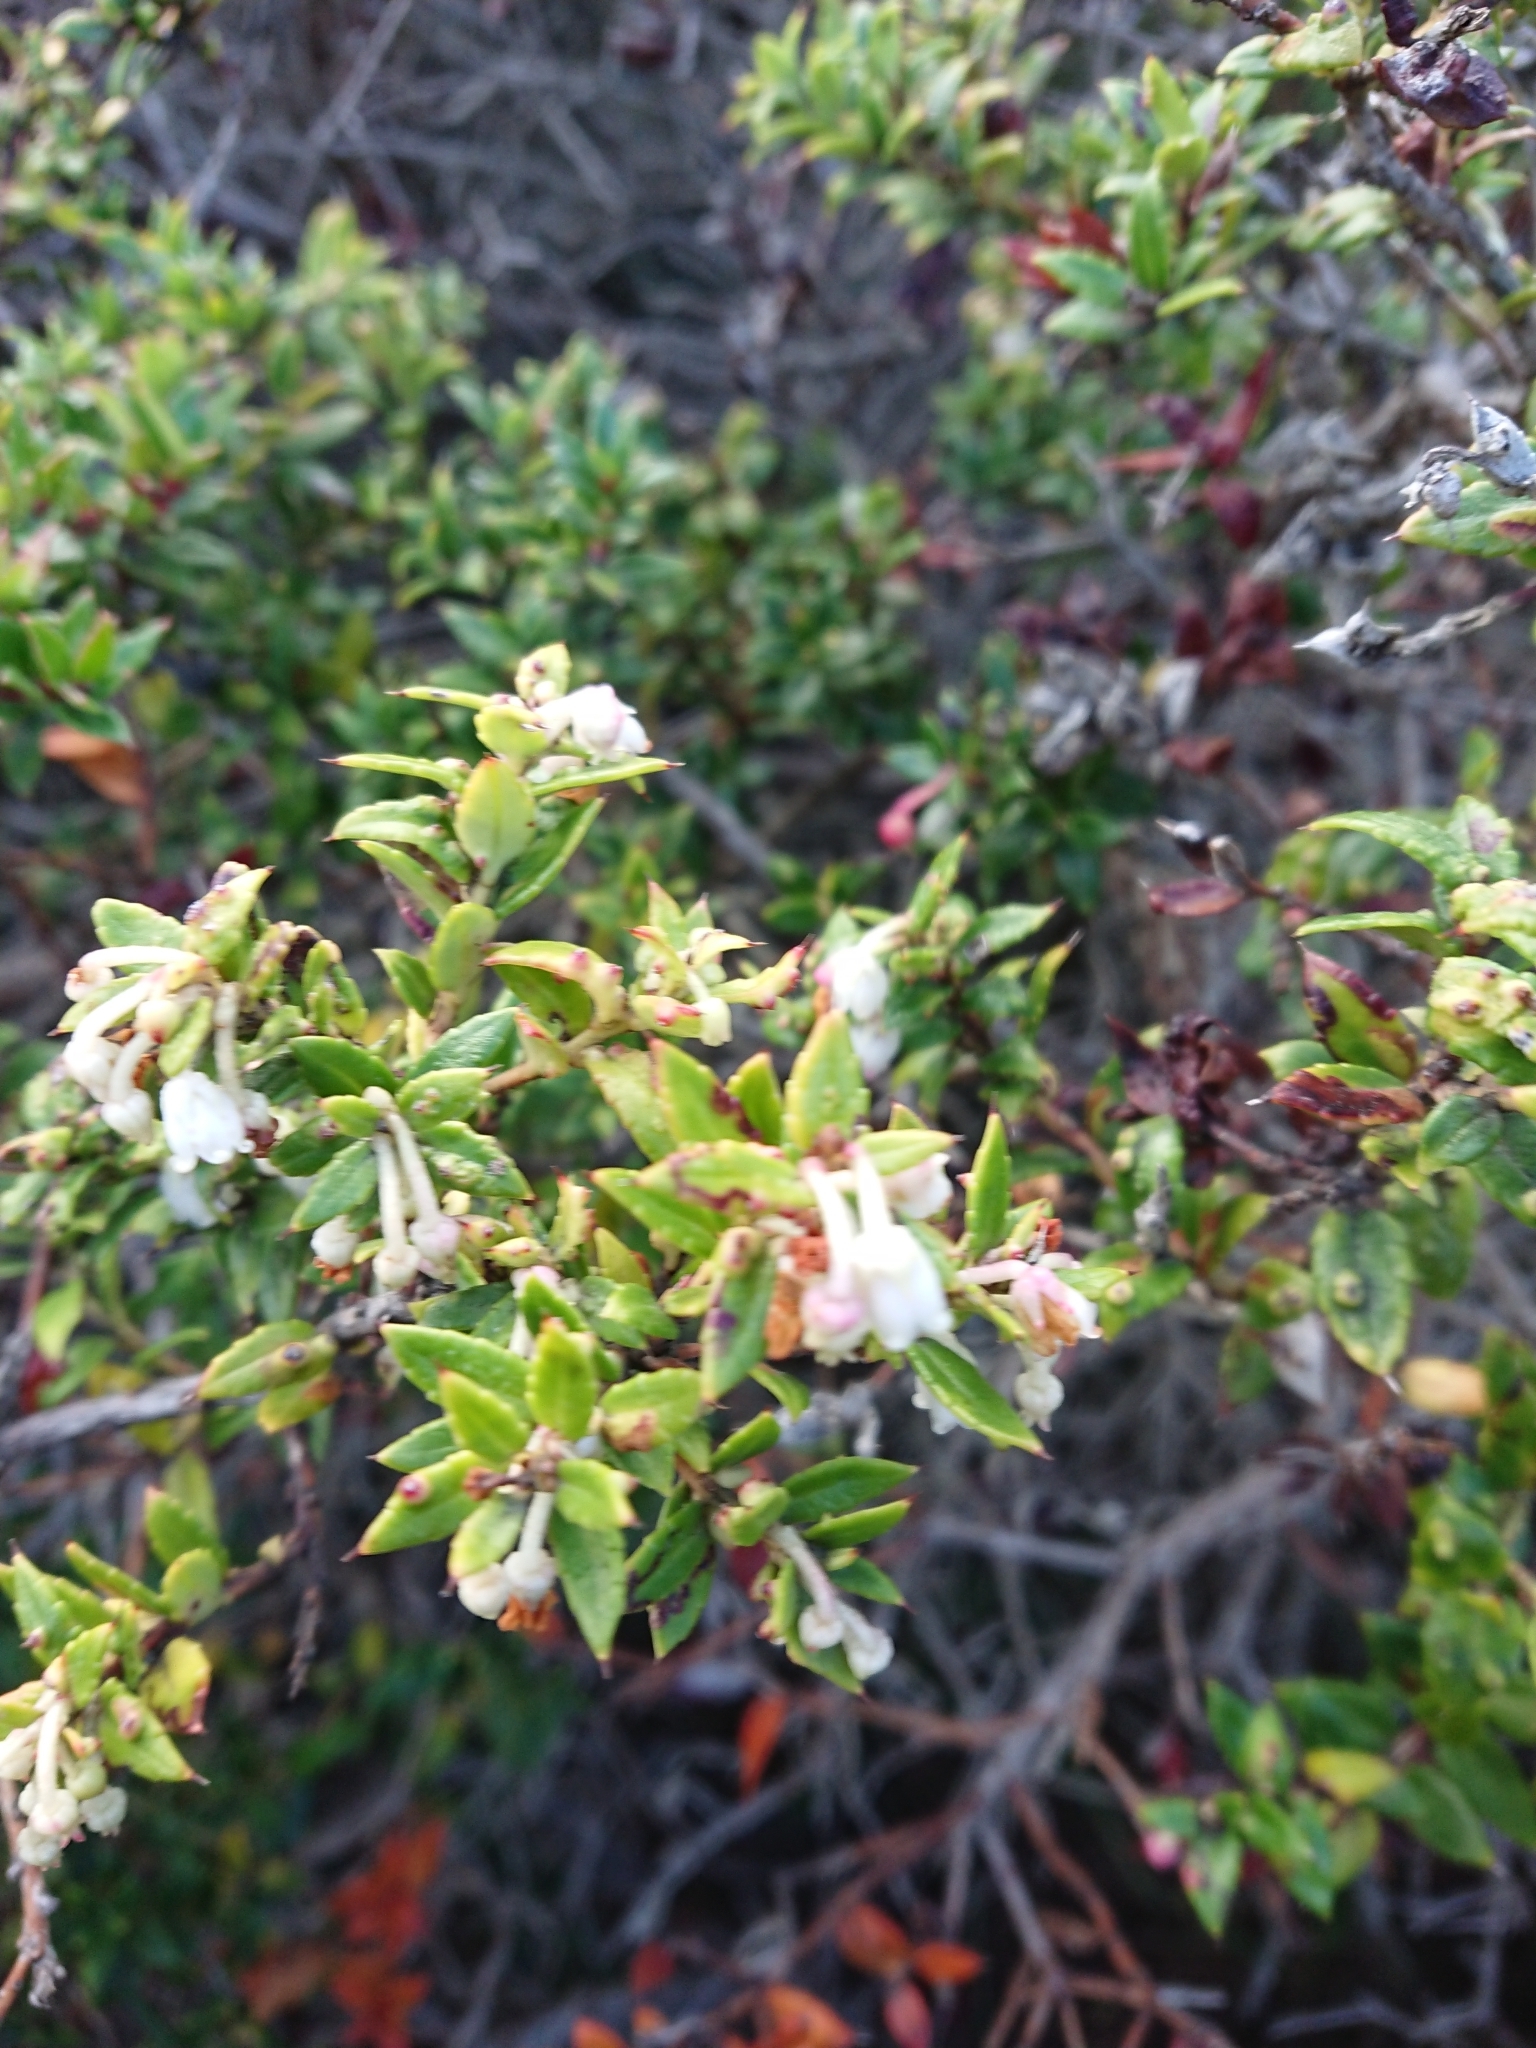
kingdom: Plantae
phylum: Tracheophyta
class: Magnoliopsida
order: Ericales
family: Ericaceae
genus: Gaultheria
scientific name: Gaultheria mucronata
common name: Prickly heath
